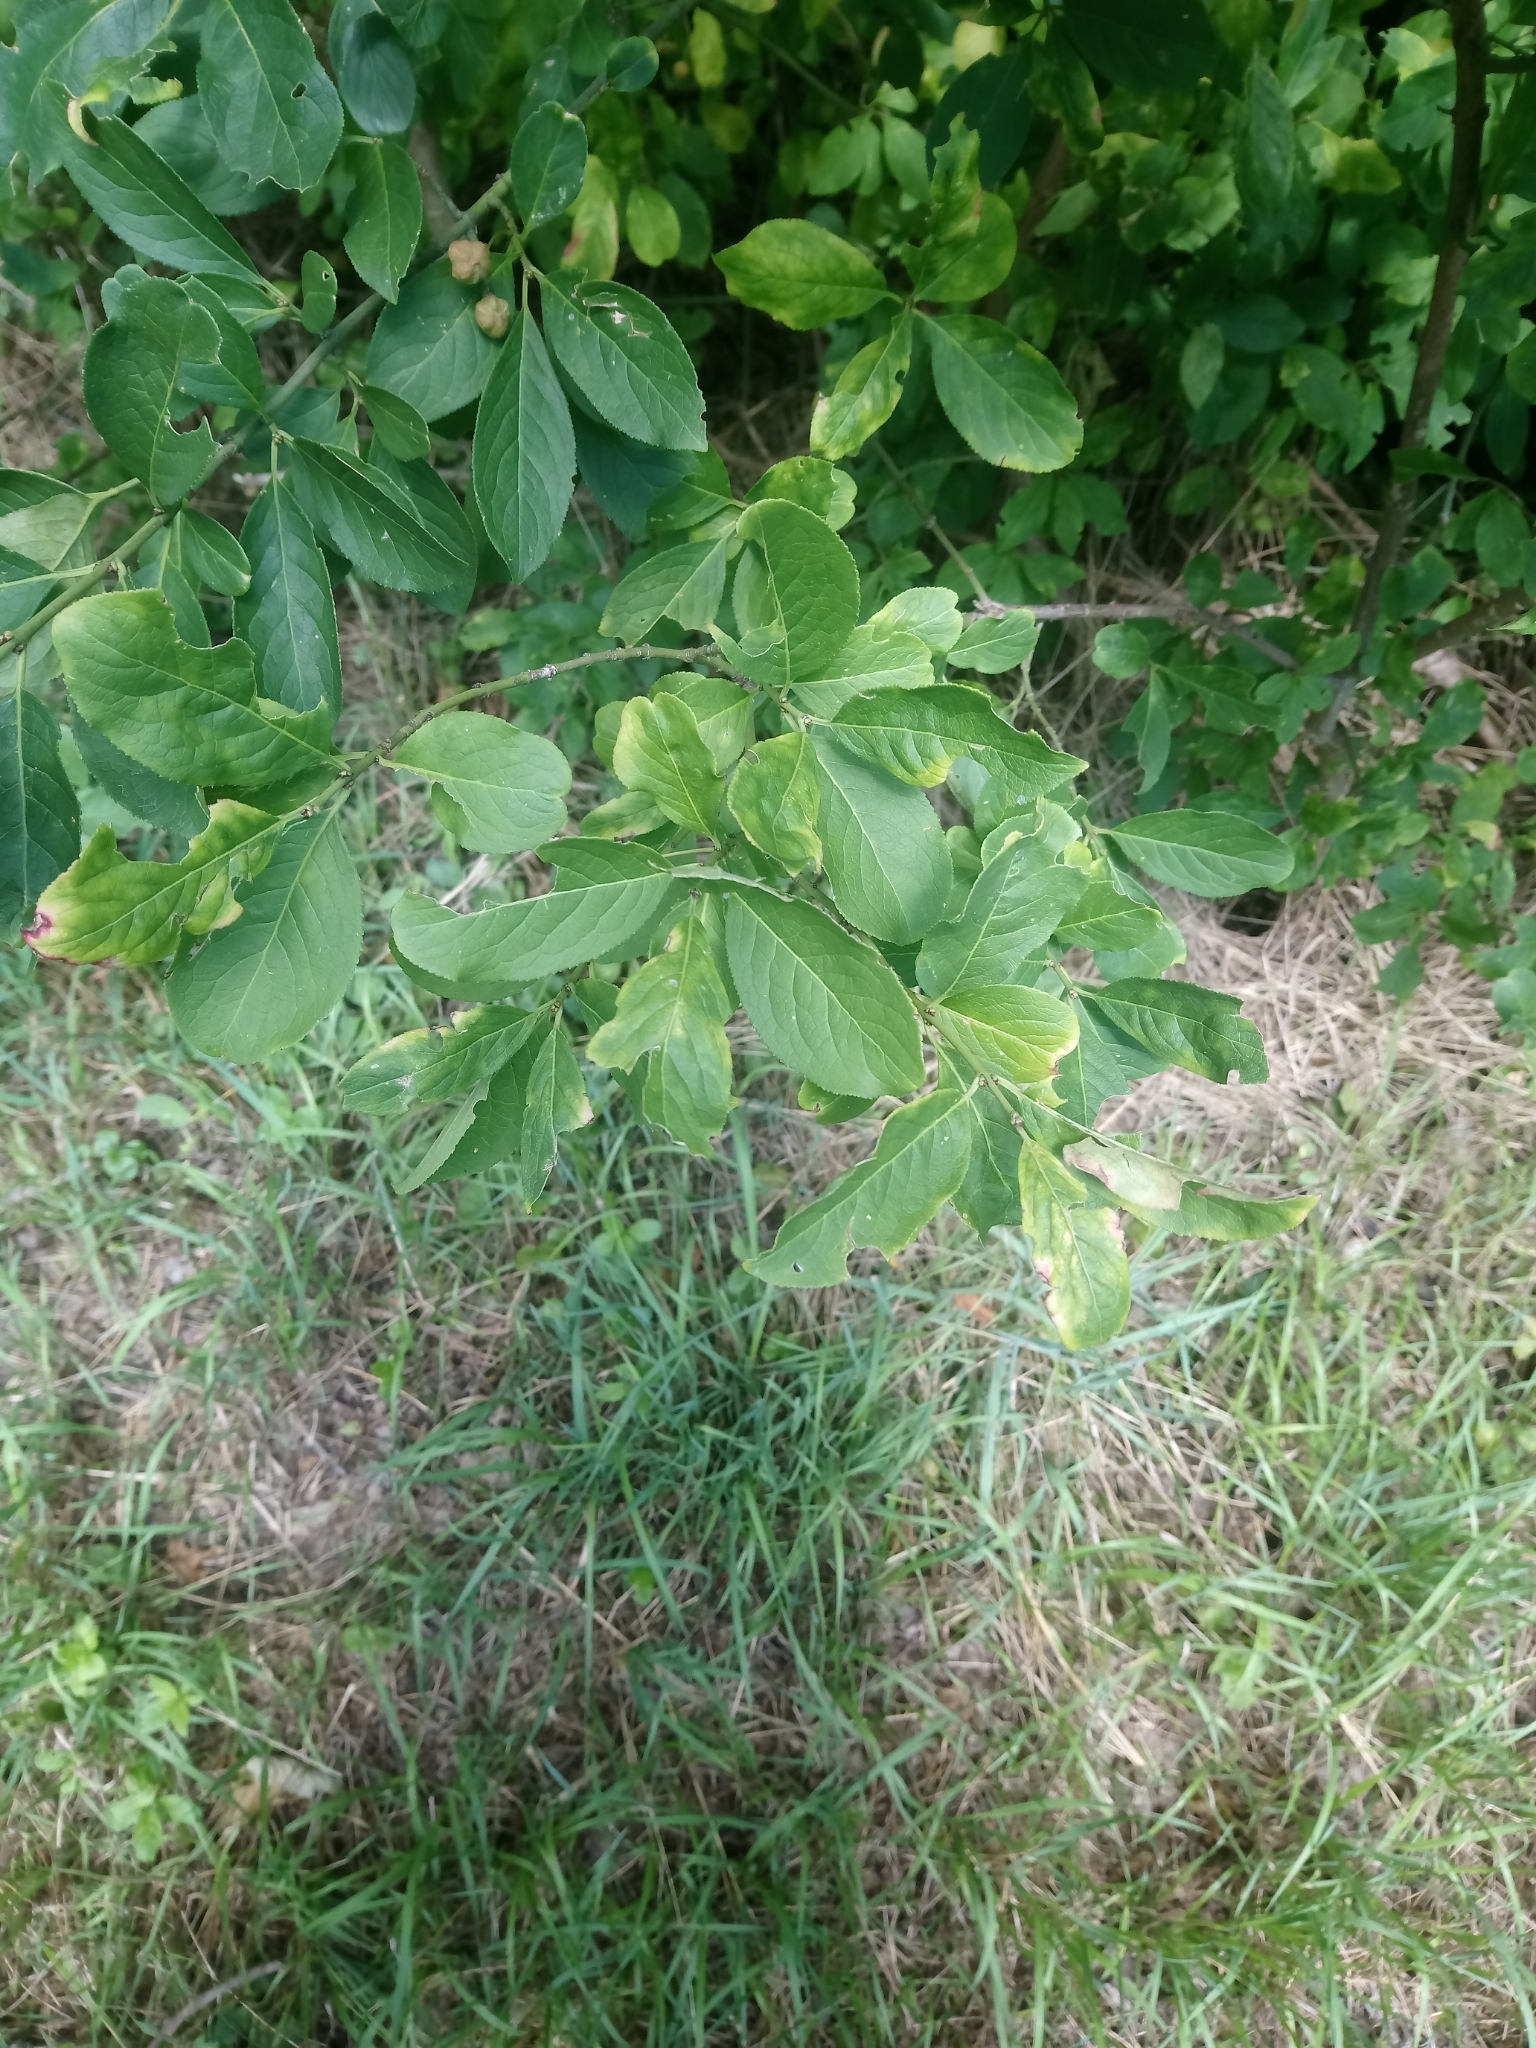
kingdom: Plantae
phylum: Tracheophyta
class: Magnoliopsida
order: Celastrales
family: Celastraceae
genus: Euonymus
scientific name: Euonymus europaeus
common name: Spindle
